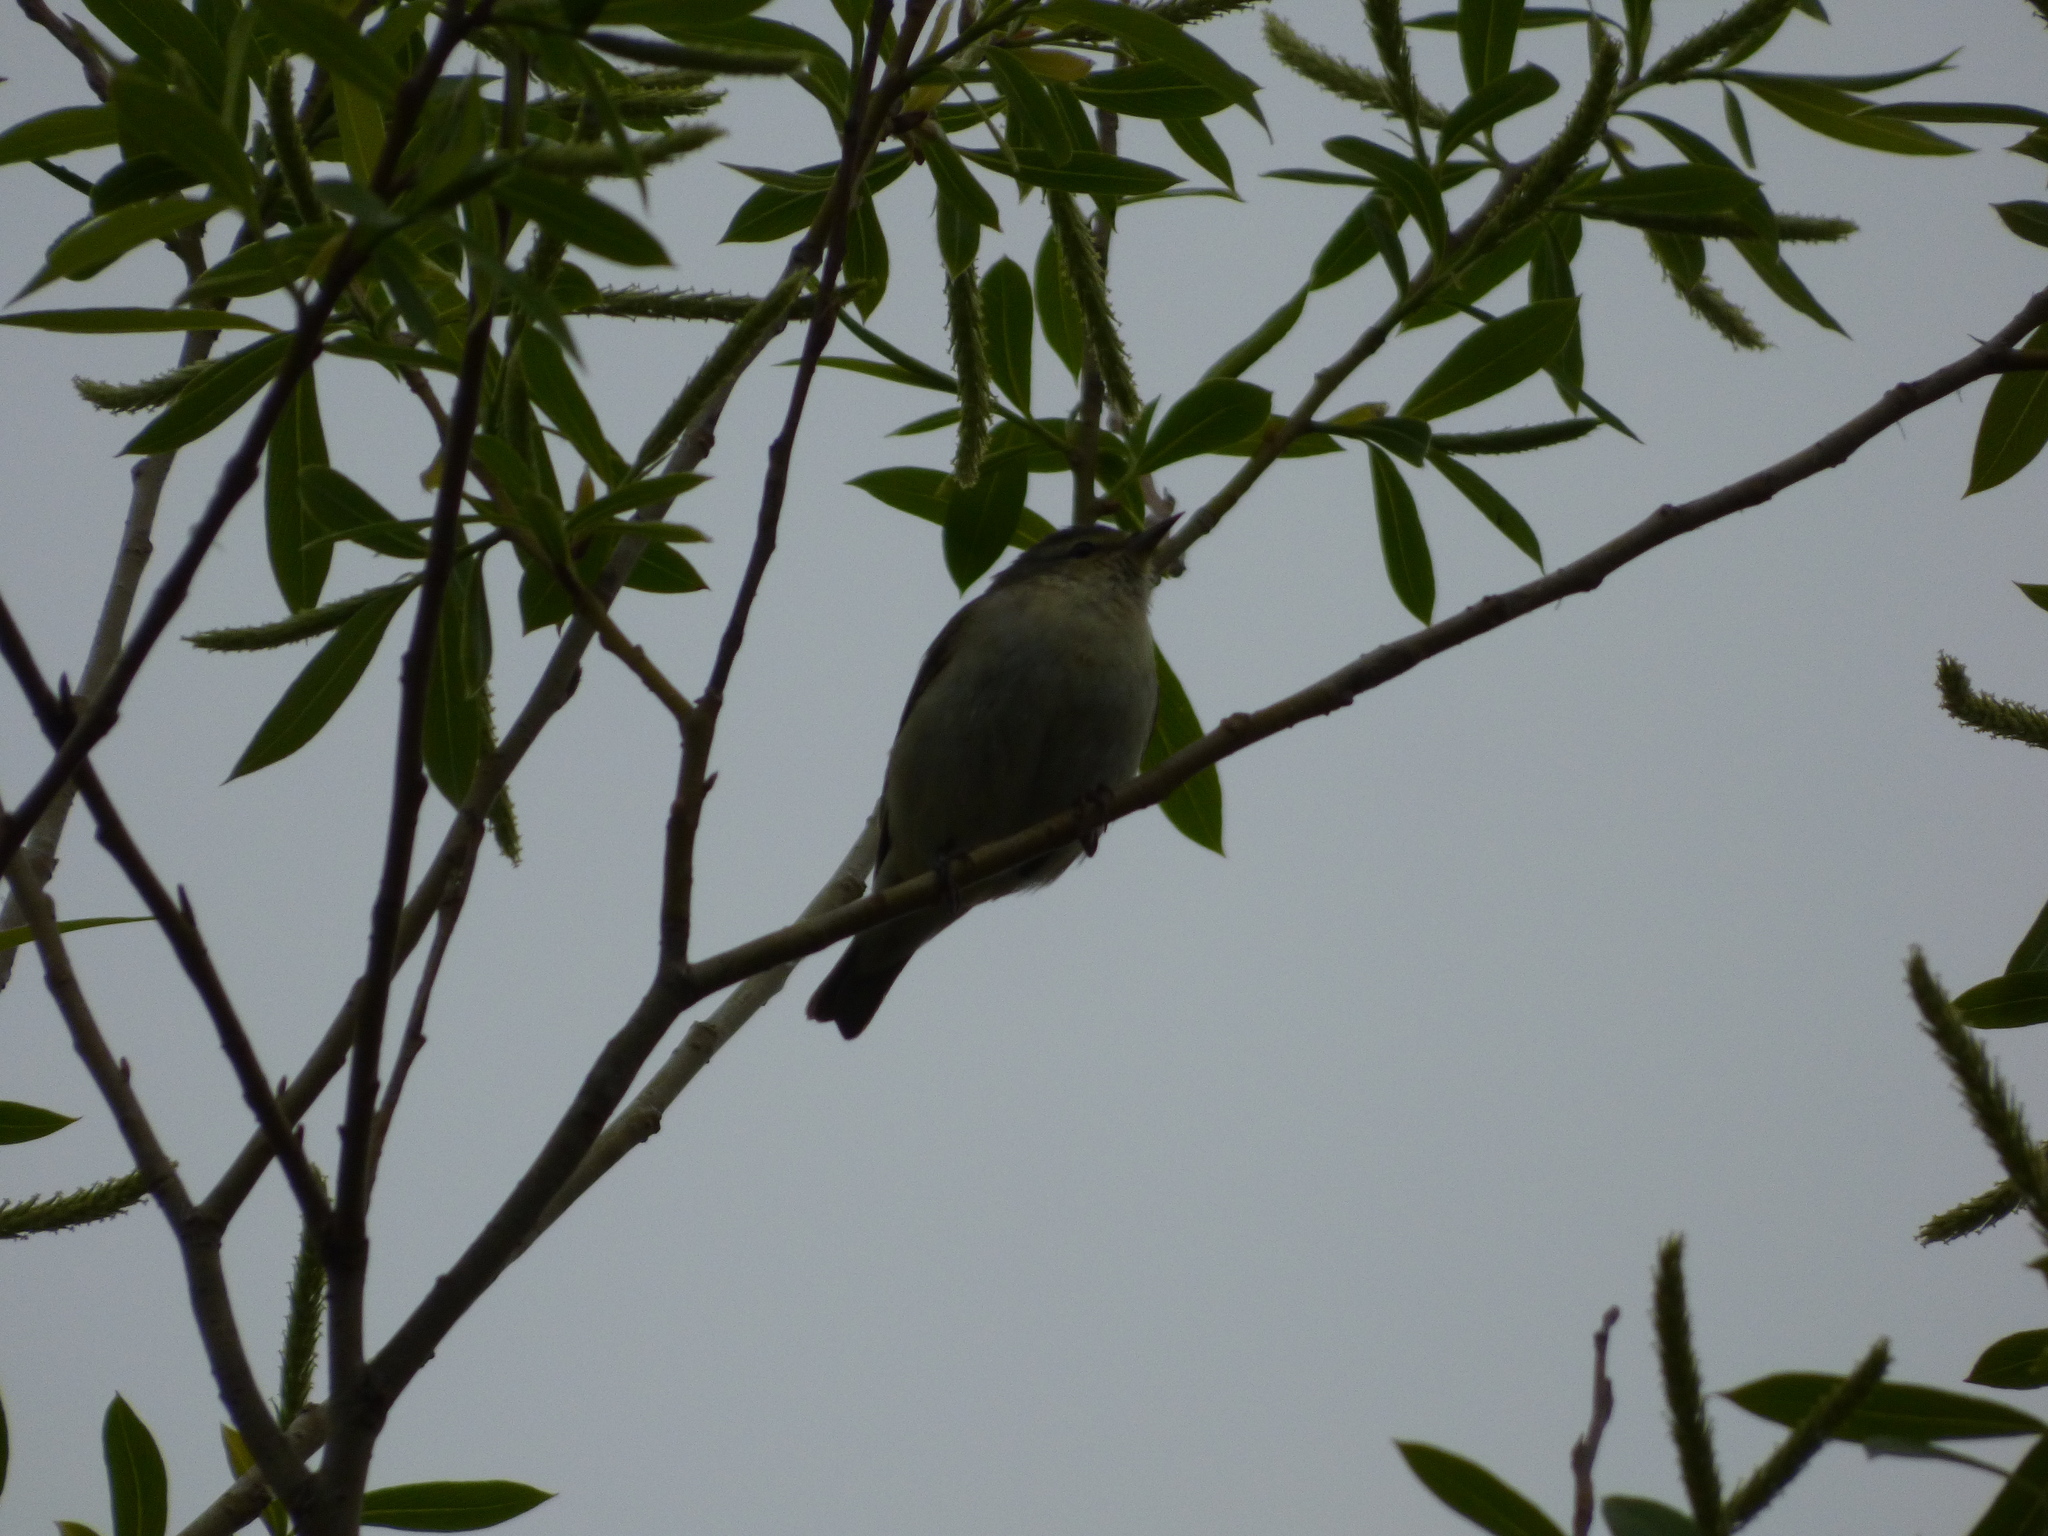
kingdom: Animalia
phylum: Chordata
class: Aves
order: Passeriformes
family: Parulidae
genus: Leiothlypis
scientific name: Leiothlypis peregrina
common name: Tennessee warbler
